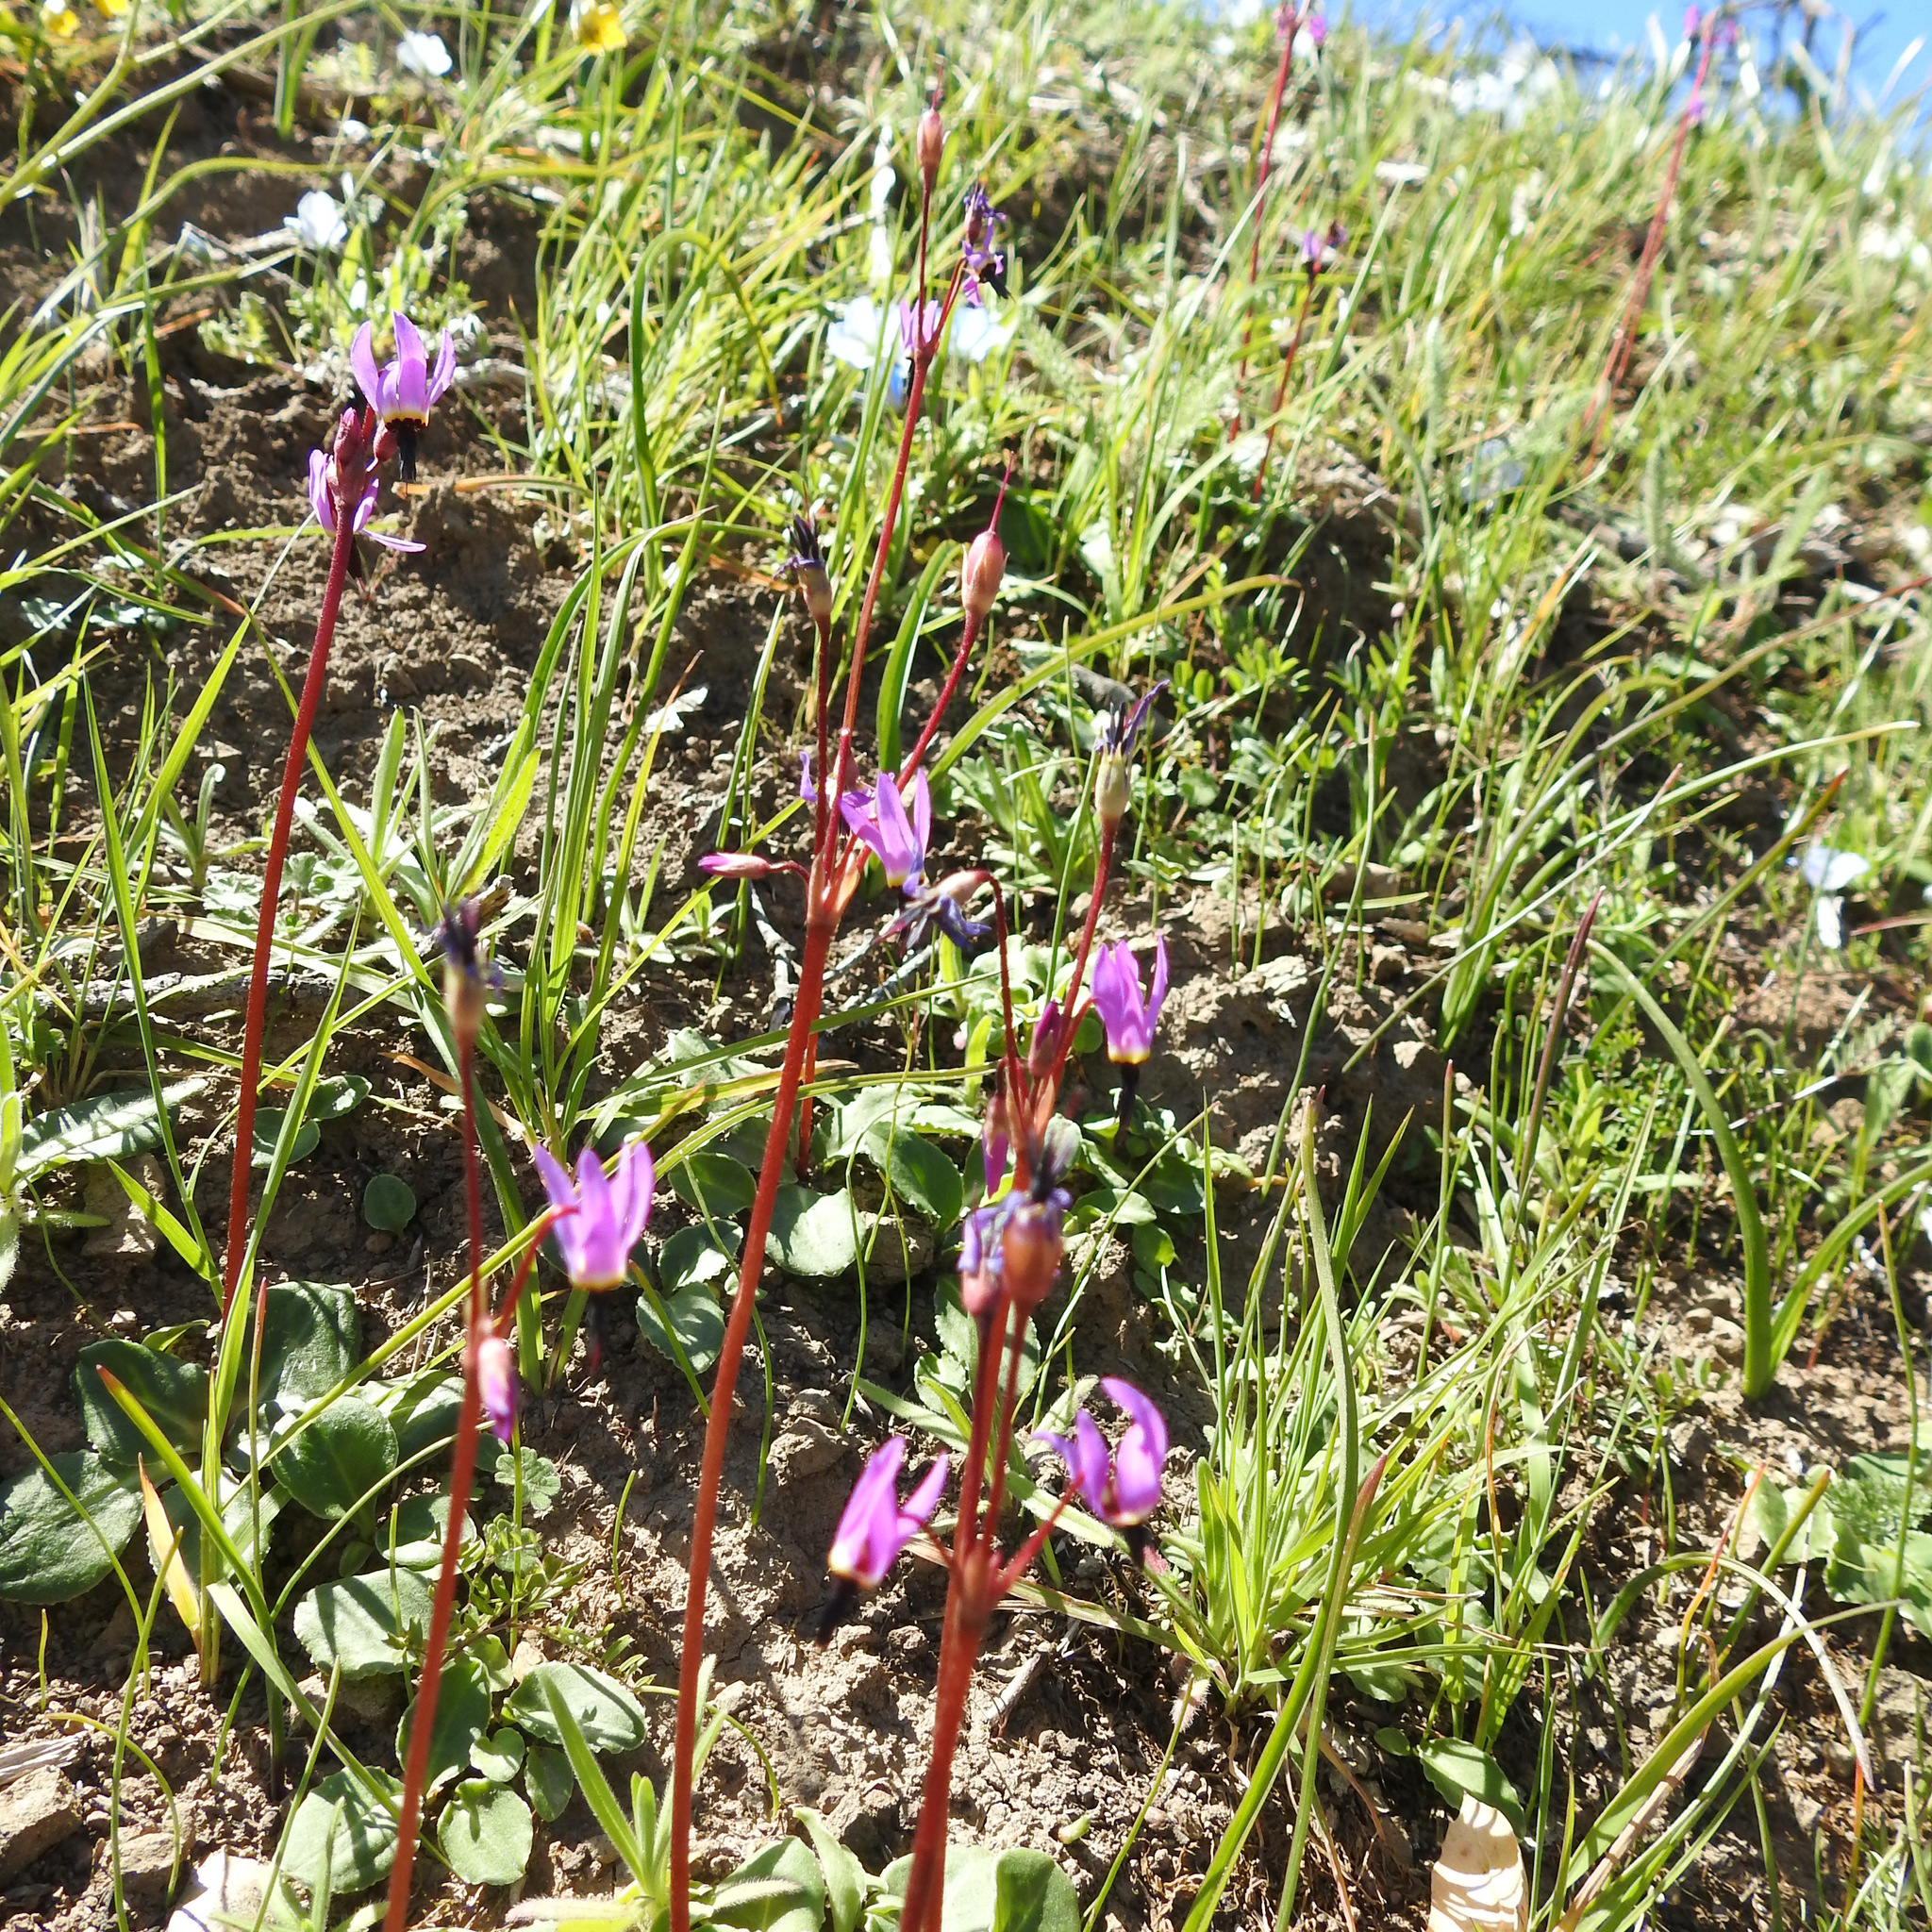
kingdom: Plantae
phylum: Tracheophyta
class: Magnoliopsida
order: Ericales
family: Primulaceae
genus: Dodecatheon
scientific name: Dodecatheon hendersonii
